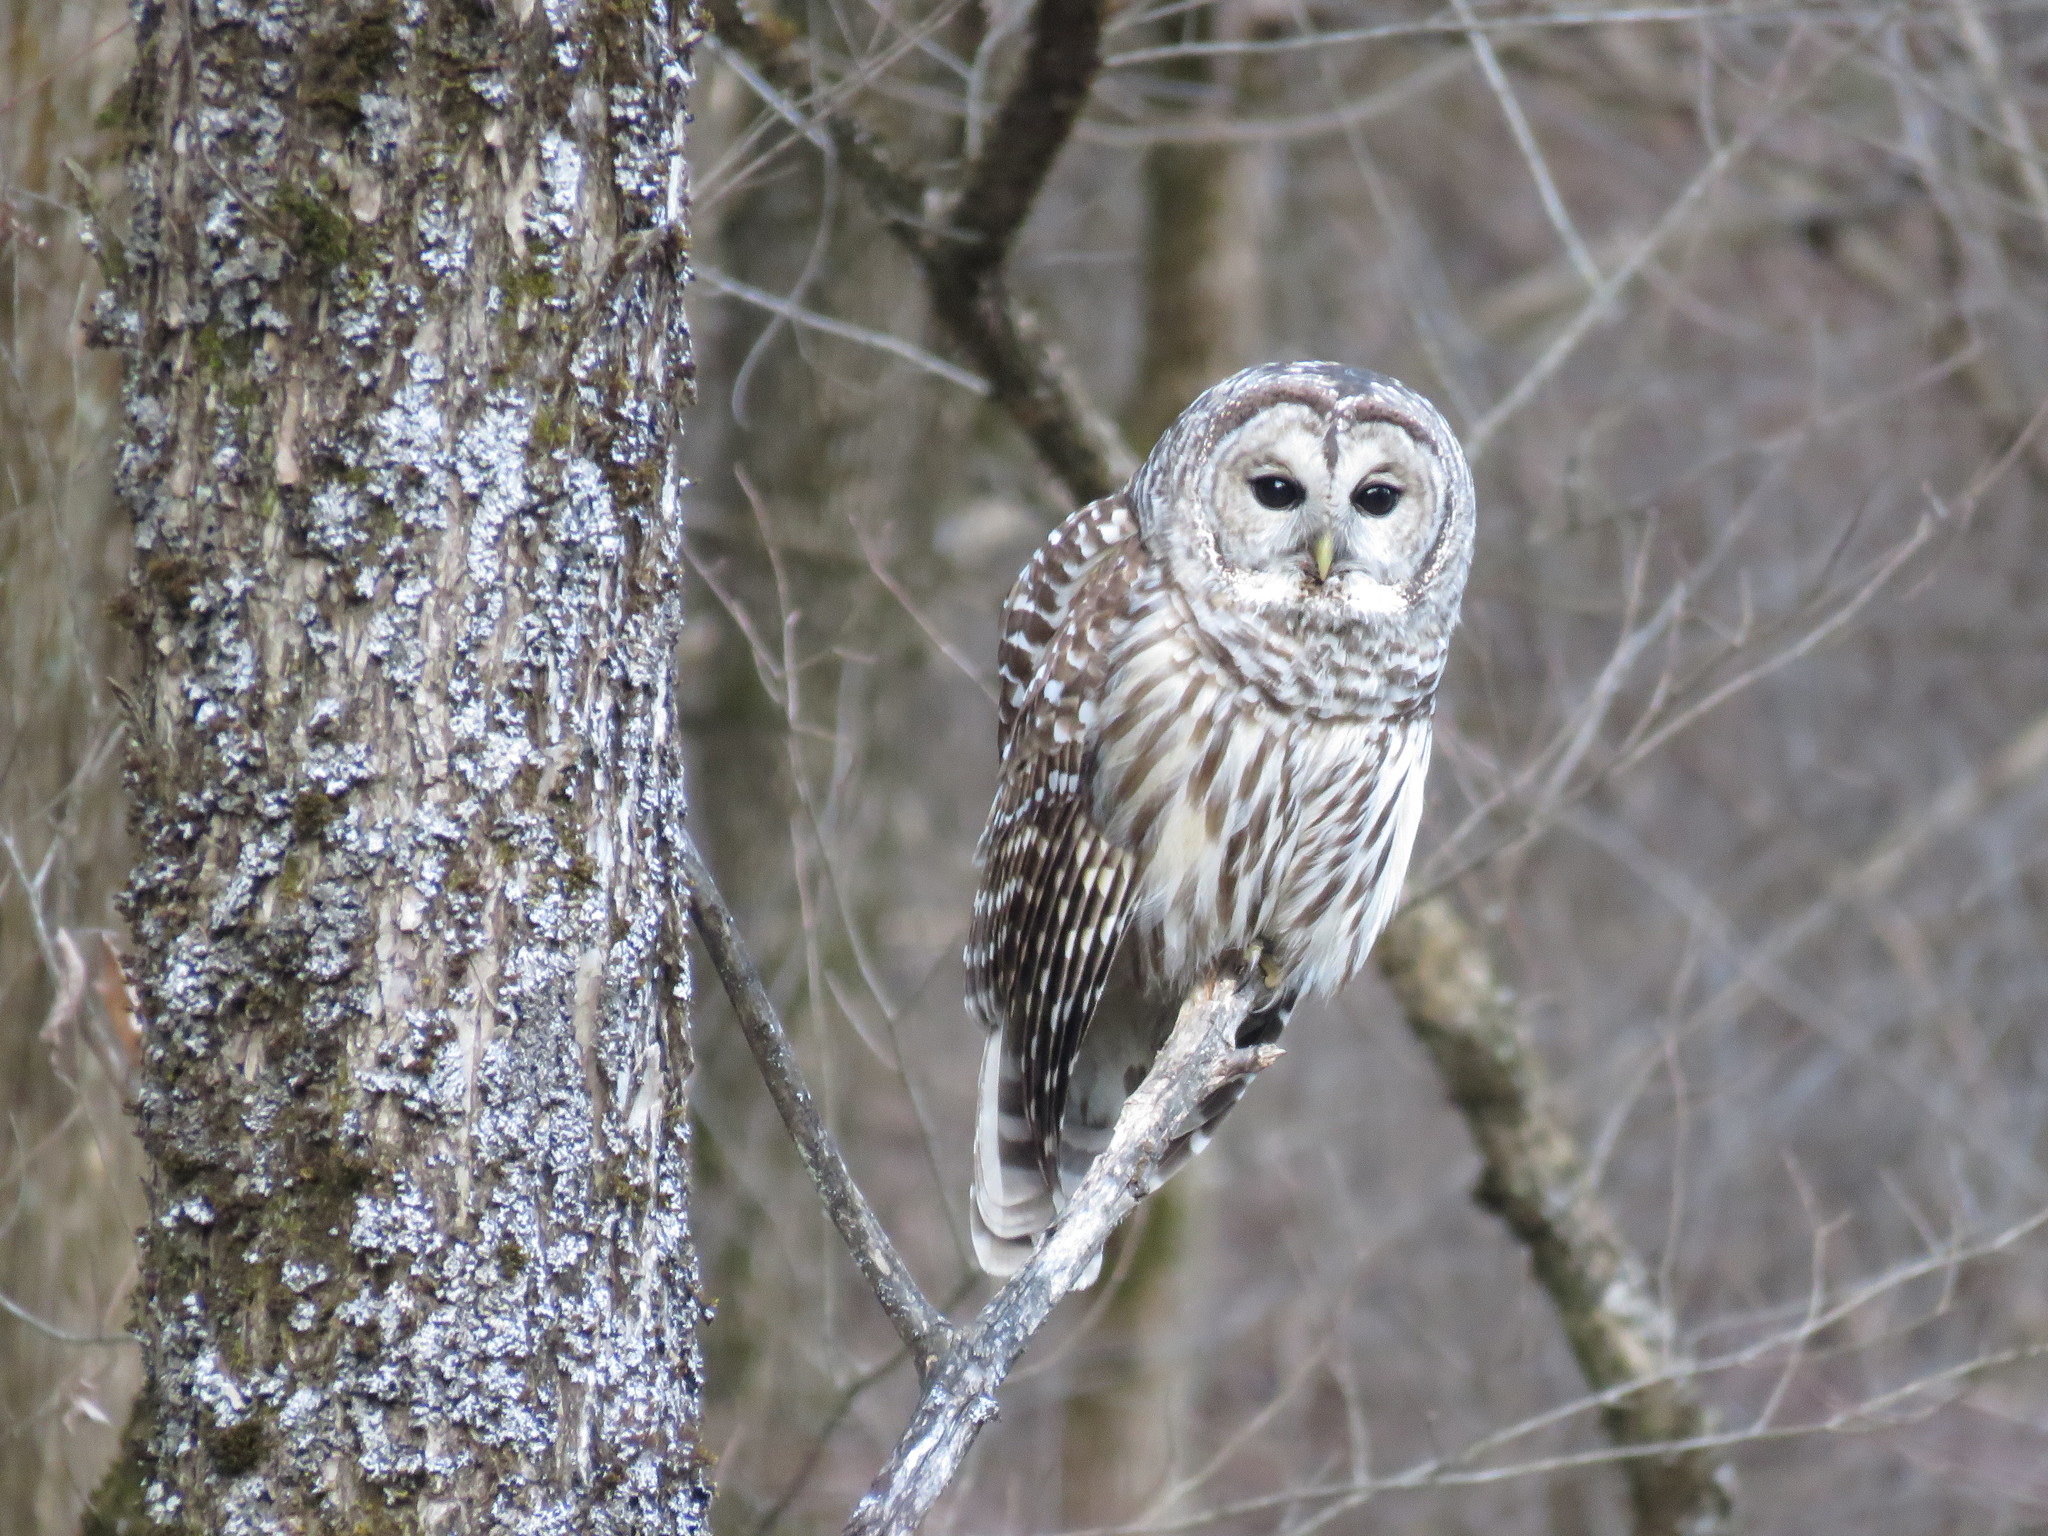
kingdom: Animalia
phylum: Chordata
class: Aves
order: Strigiformes
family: Strigidae
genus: Strix
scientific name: Strix varia
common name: Barred owl
